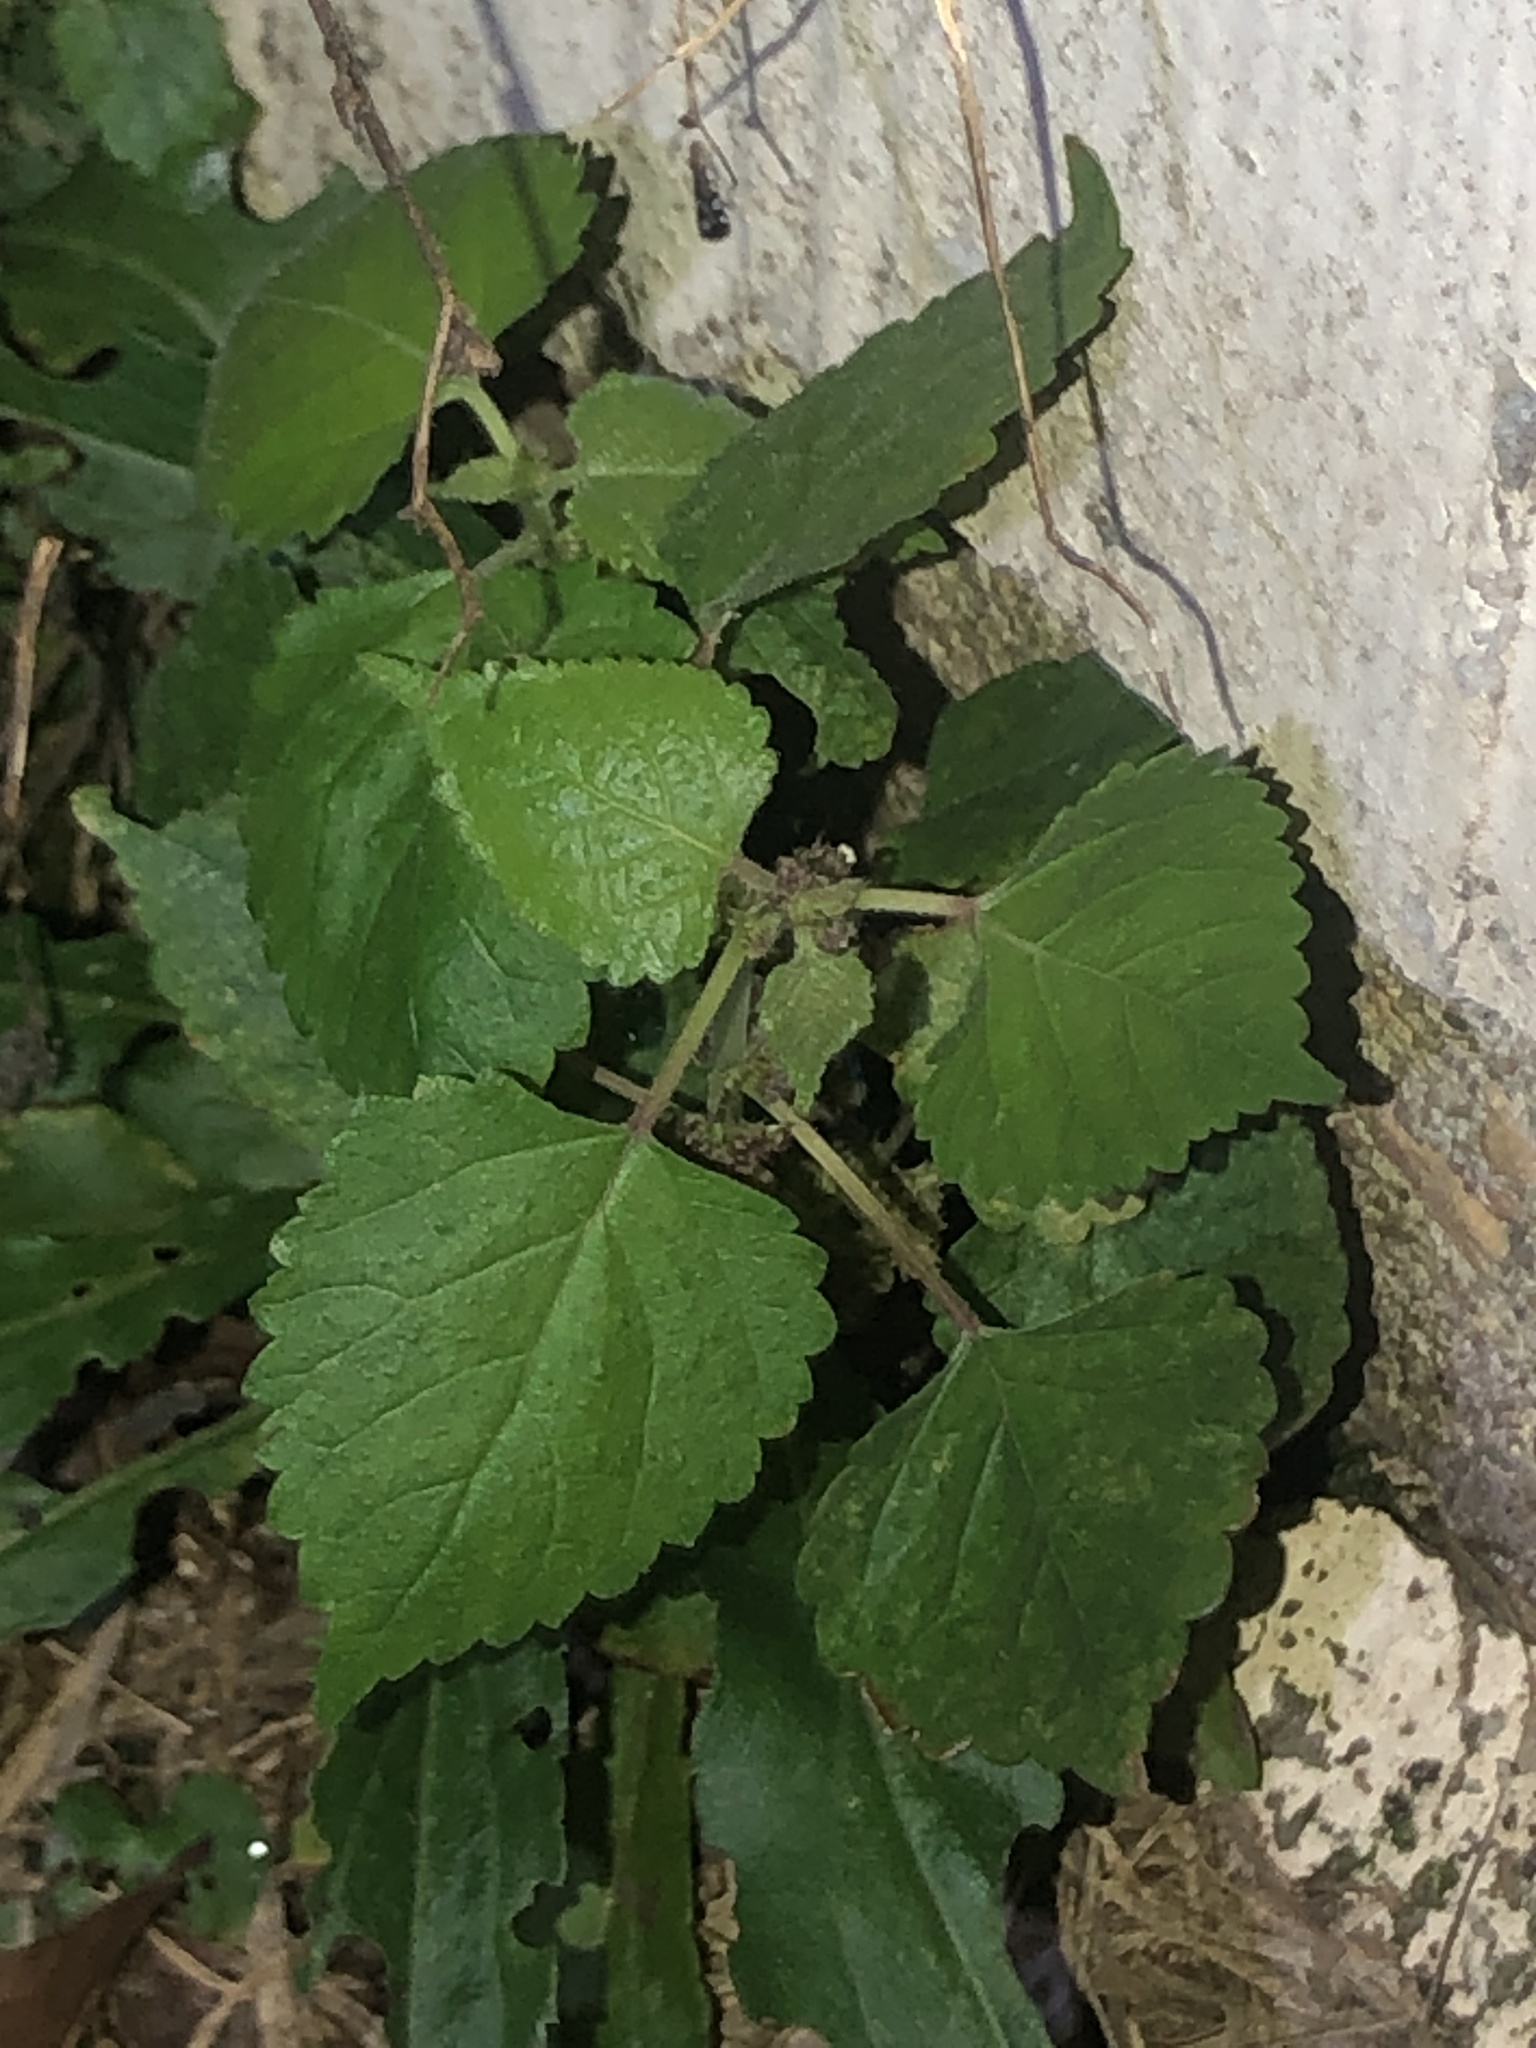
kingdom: Plantae
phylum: Tracheophyta
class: Magnoliopsida
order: Rosales
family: Moraceae
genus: Fatoua
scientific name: Fatoua villosa
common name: Hairy crabweed
